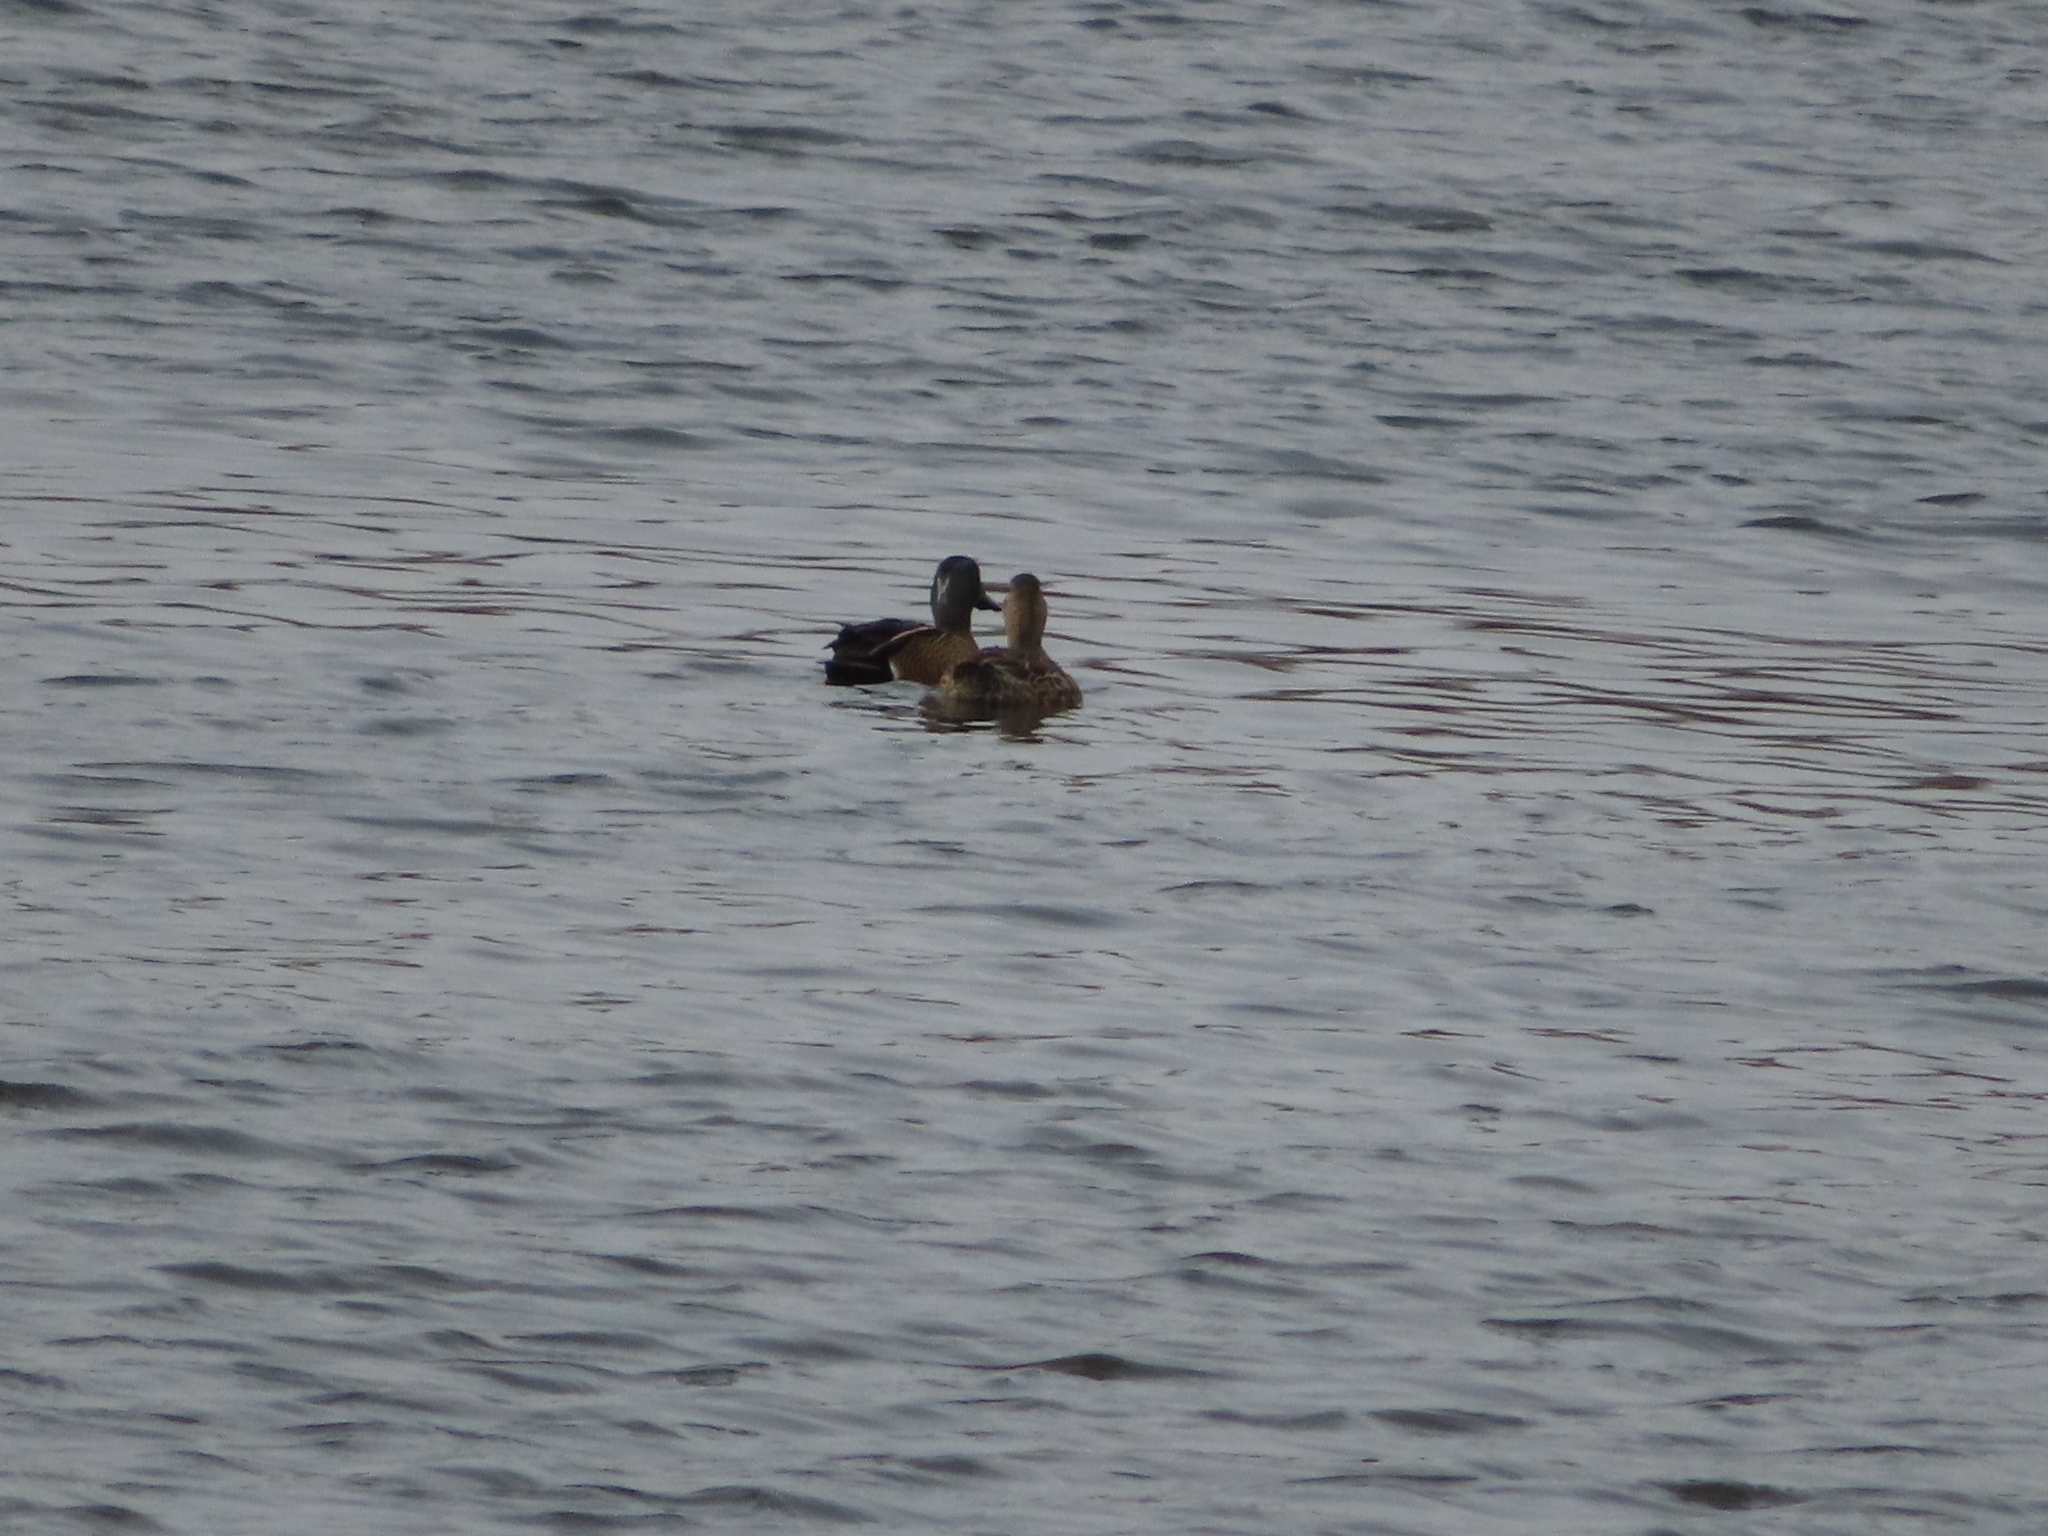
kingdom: Animalia
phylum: Chordata
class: Aves
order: Anseriformes
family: Anatidae
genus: Spatula
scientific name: Spatula discors
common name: Blue-winged teal
